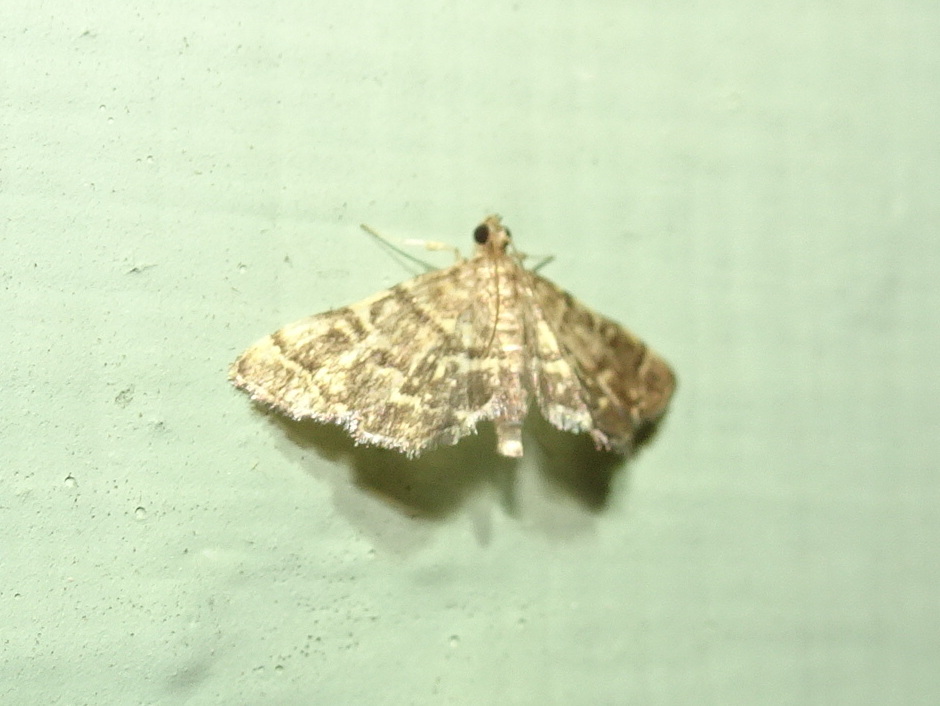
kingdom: Animalia
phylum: Arthropoda
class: Insecta
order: Lepidoptera
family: Crambidae
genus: Anageshna
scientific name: Anageshna primordialis
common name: Yellow-spotted webworm moth
